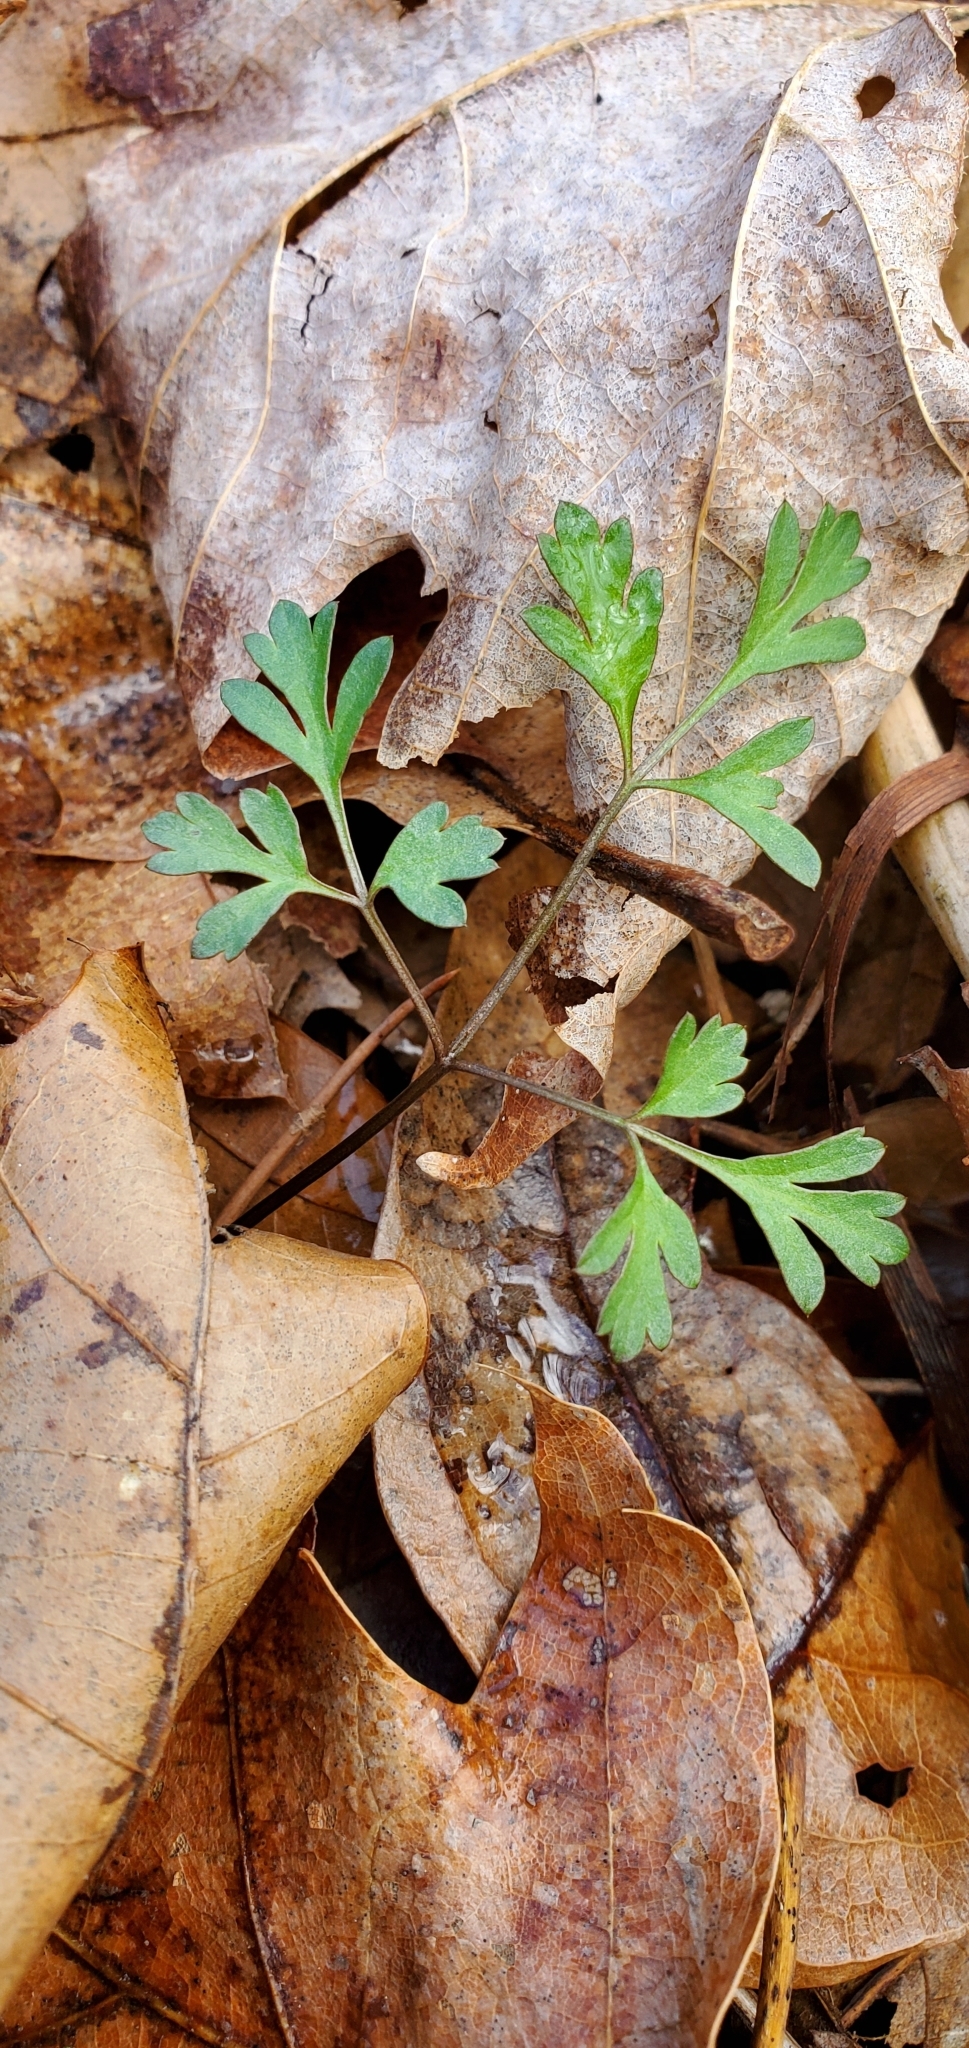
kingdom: Plantae
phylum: Tracheophyta
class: Magnoliopsida
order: Apiales
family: Apiaceae
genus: Erigenia
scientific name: Erigenia bulbosa
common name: Pepper-and-salt
